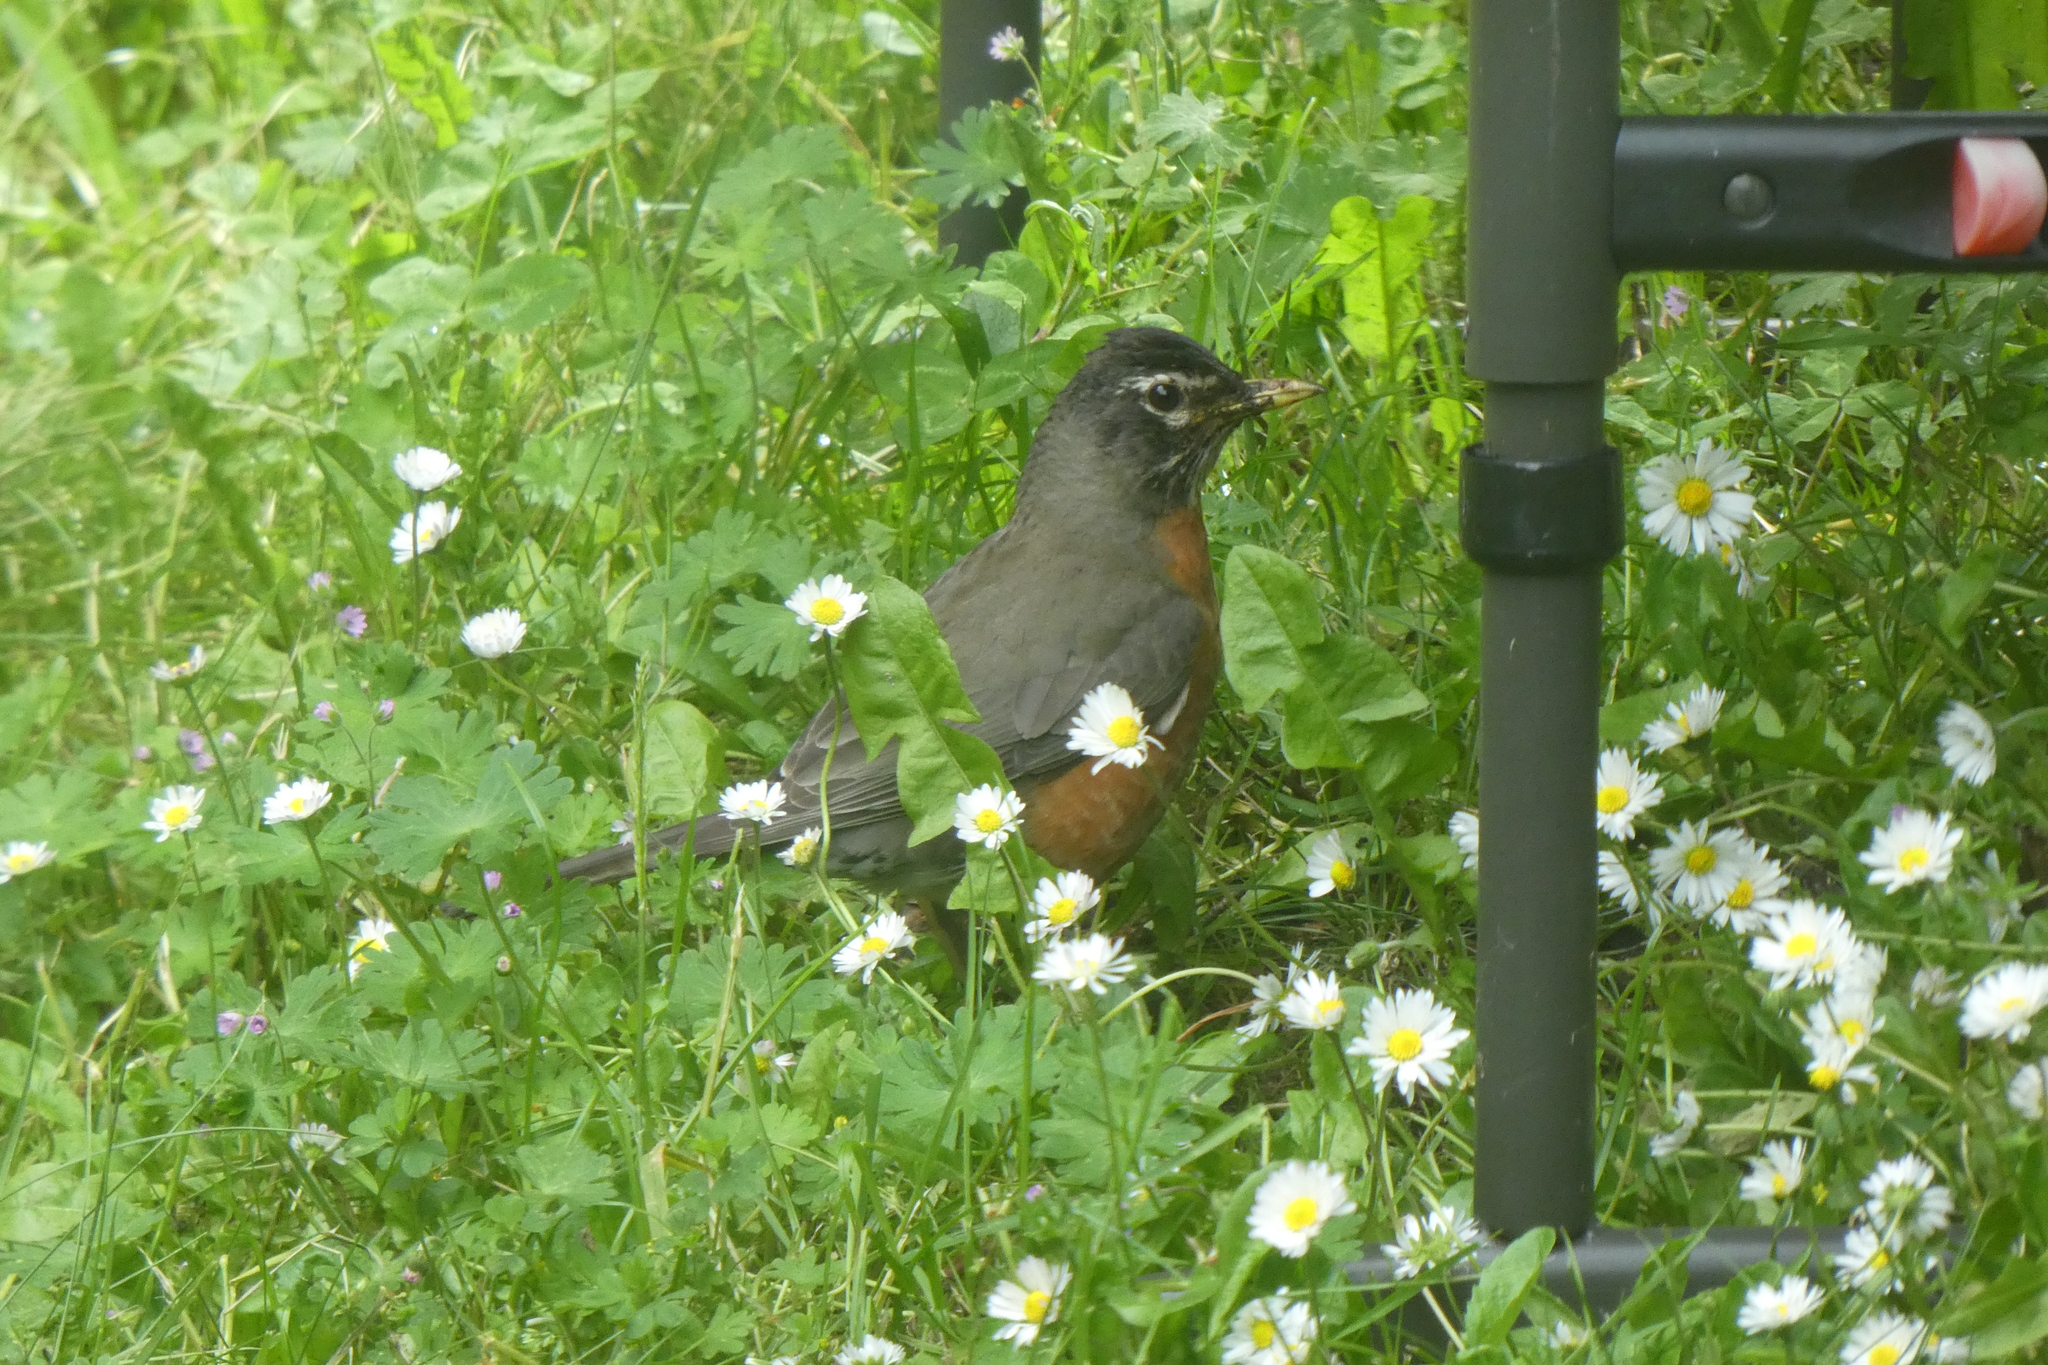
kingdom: Animalia
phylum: Chordata
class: Aves
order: Passeriformes
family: Turdidae
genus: Turdus
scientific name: Turdus migratorius
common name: American robin
